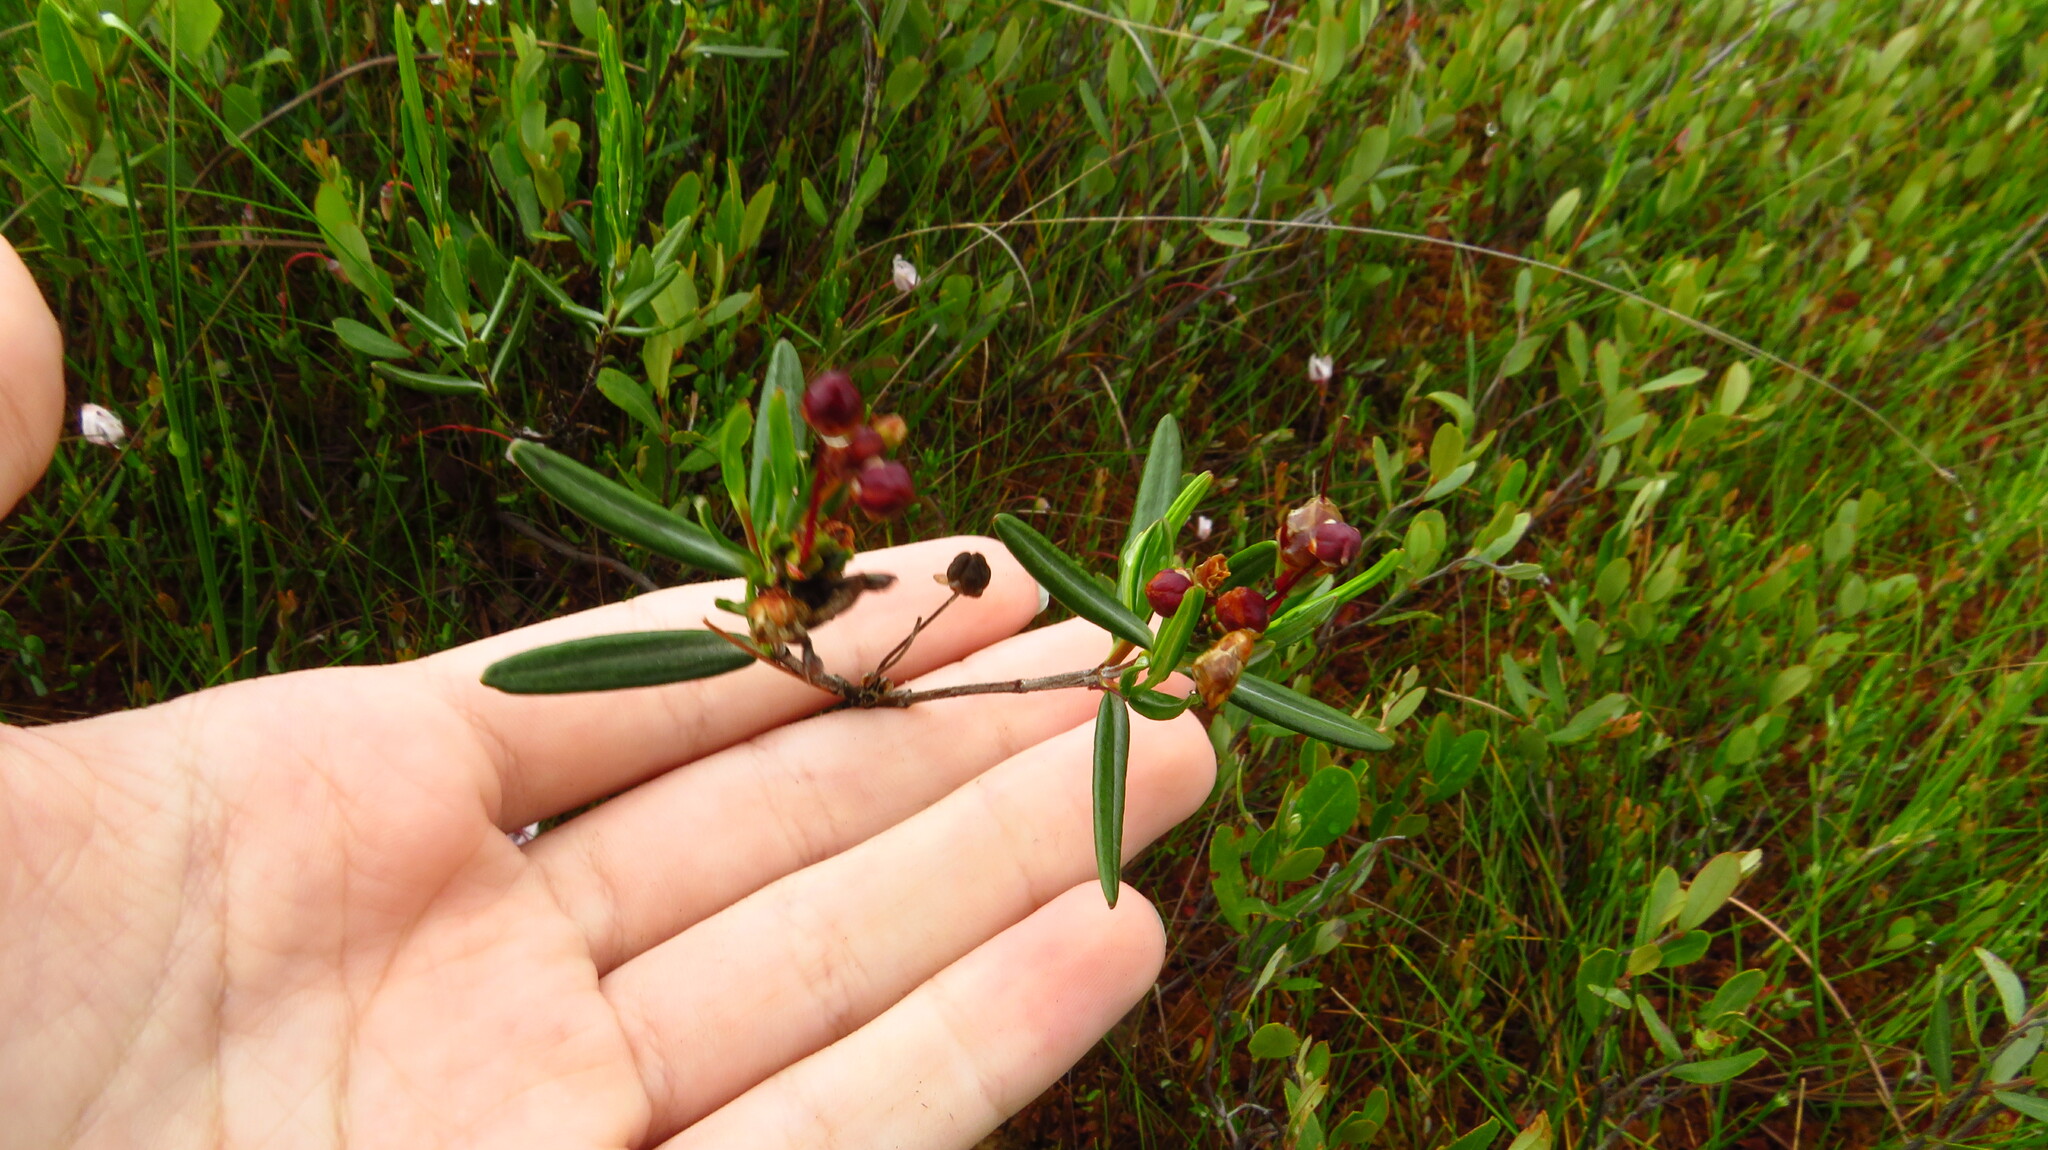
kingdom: Plantae
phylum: Tracheophyta
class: Magnoliopsida
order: Ericales
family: Ericaceae
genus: Kalmia
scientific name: Kalmia polifolia
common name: Bog-laurel
